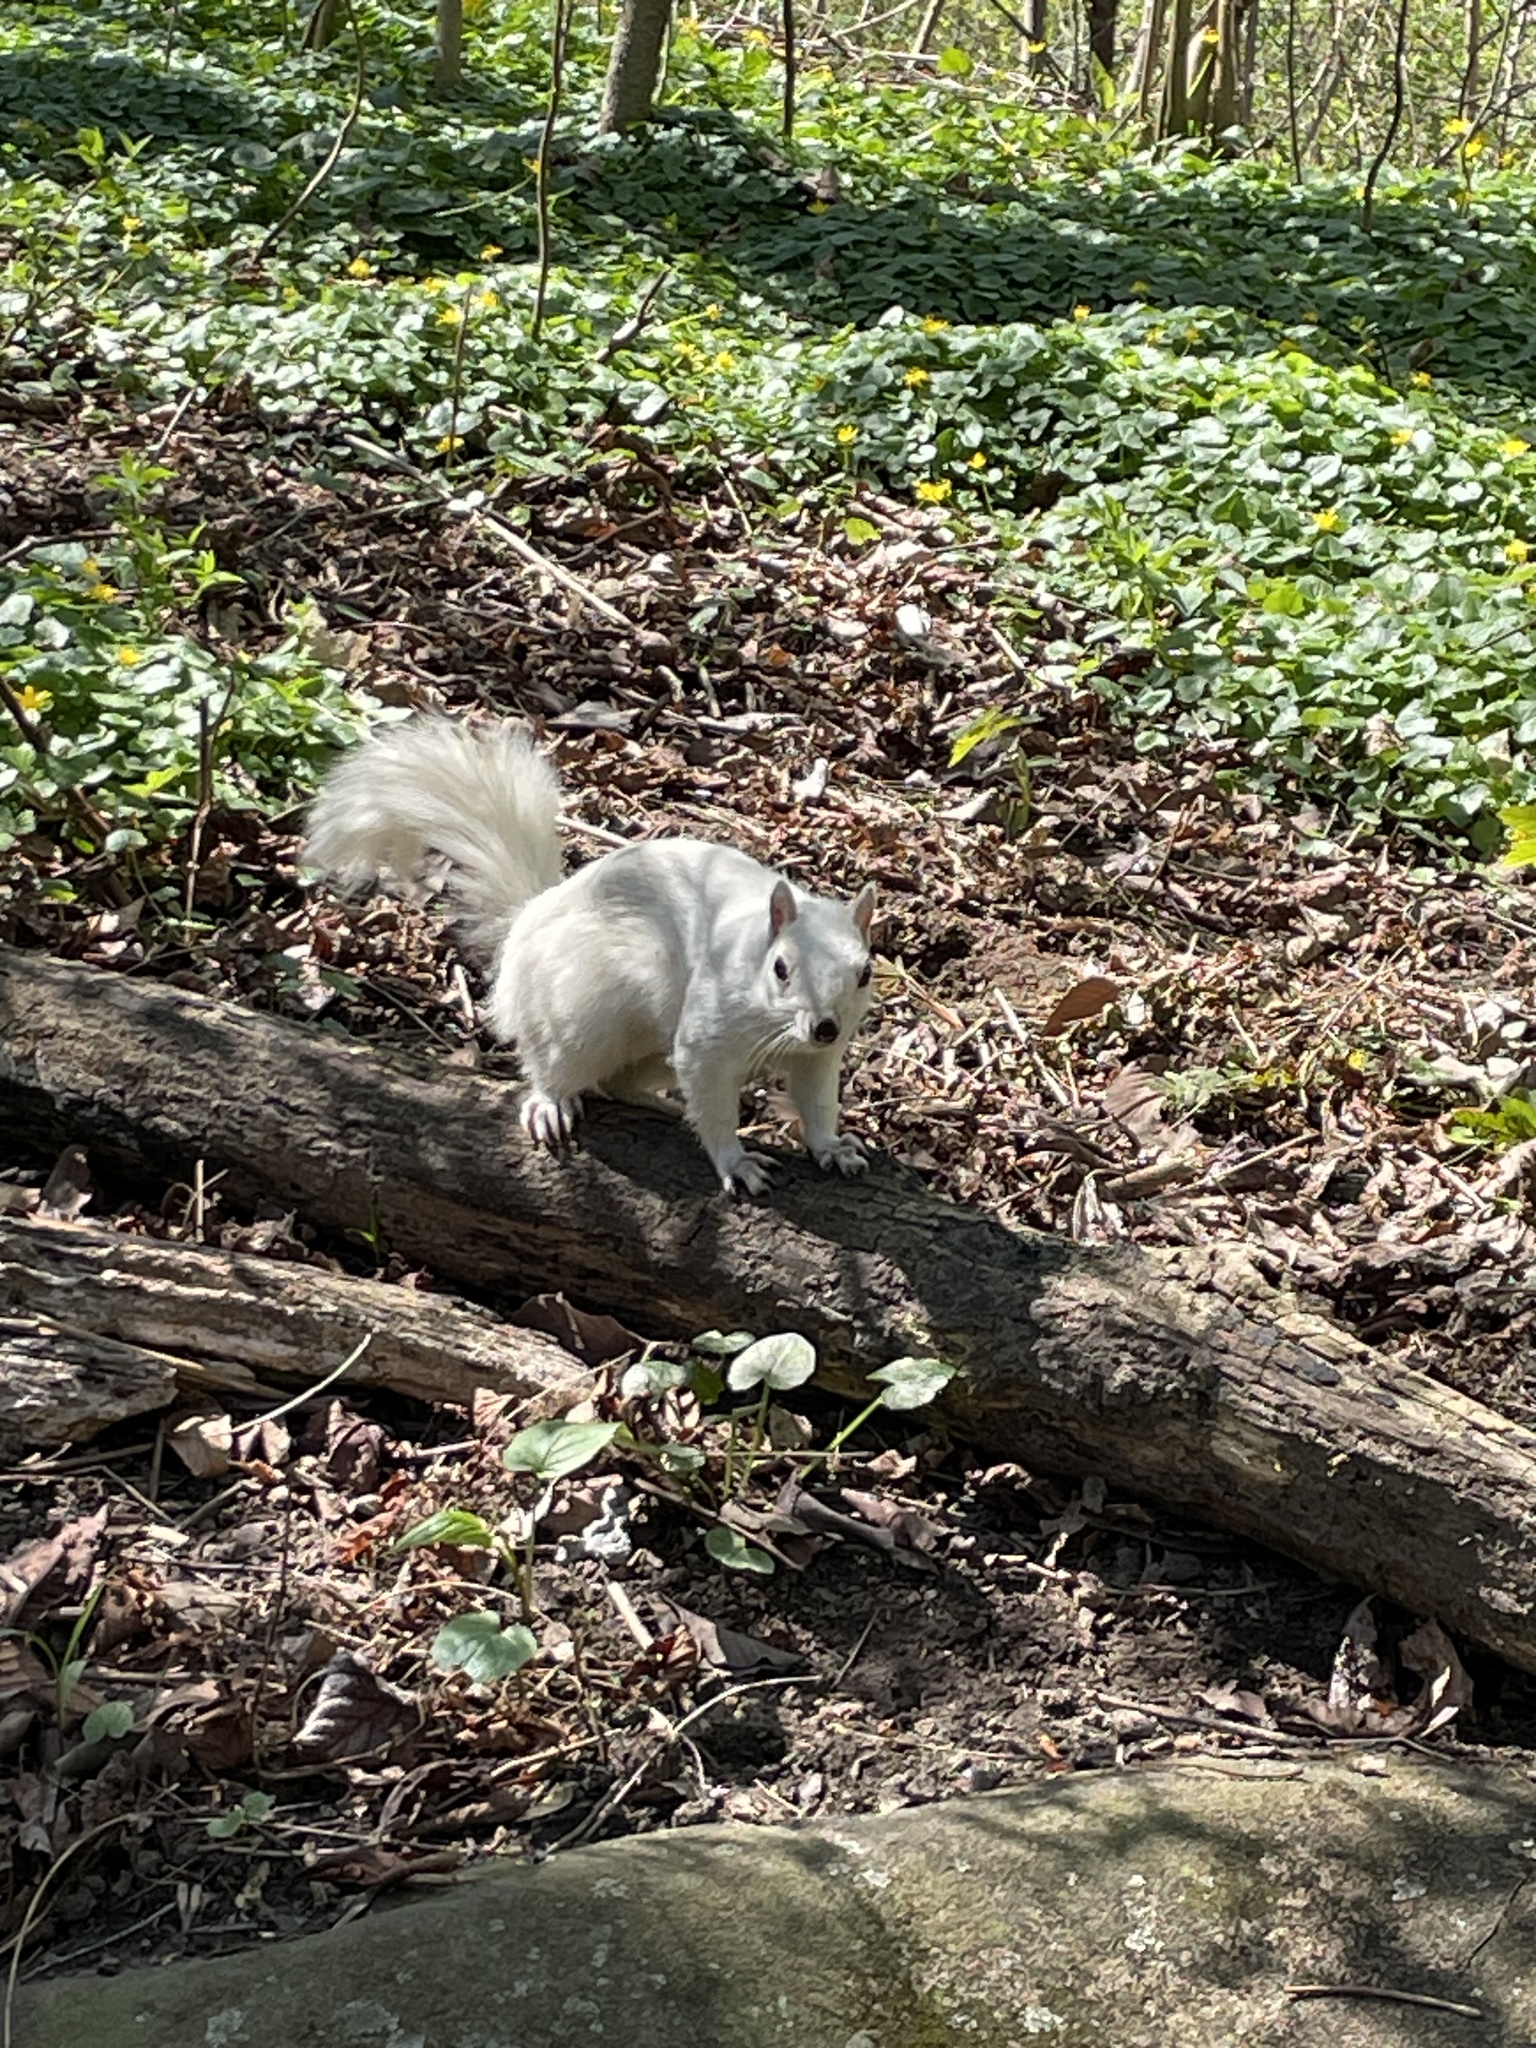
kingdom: Animalia
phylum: Chordata
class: Mammalia
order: Rodentia
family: Sciuridae
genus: Sciurus
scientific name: Sciurus carolinensis
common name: Eastern gray squirrel
